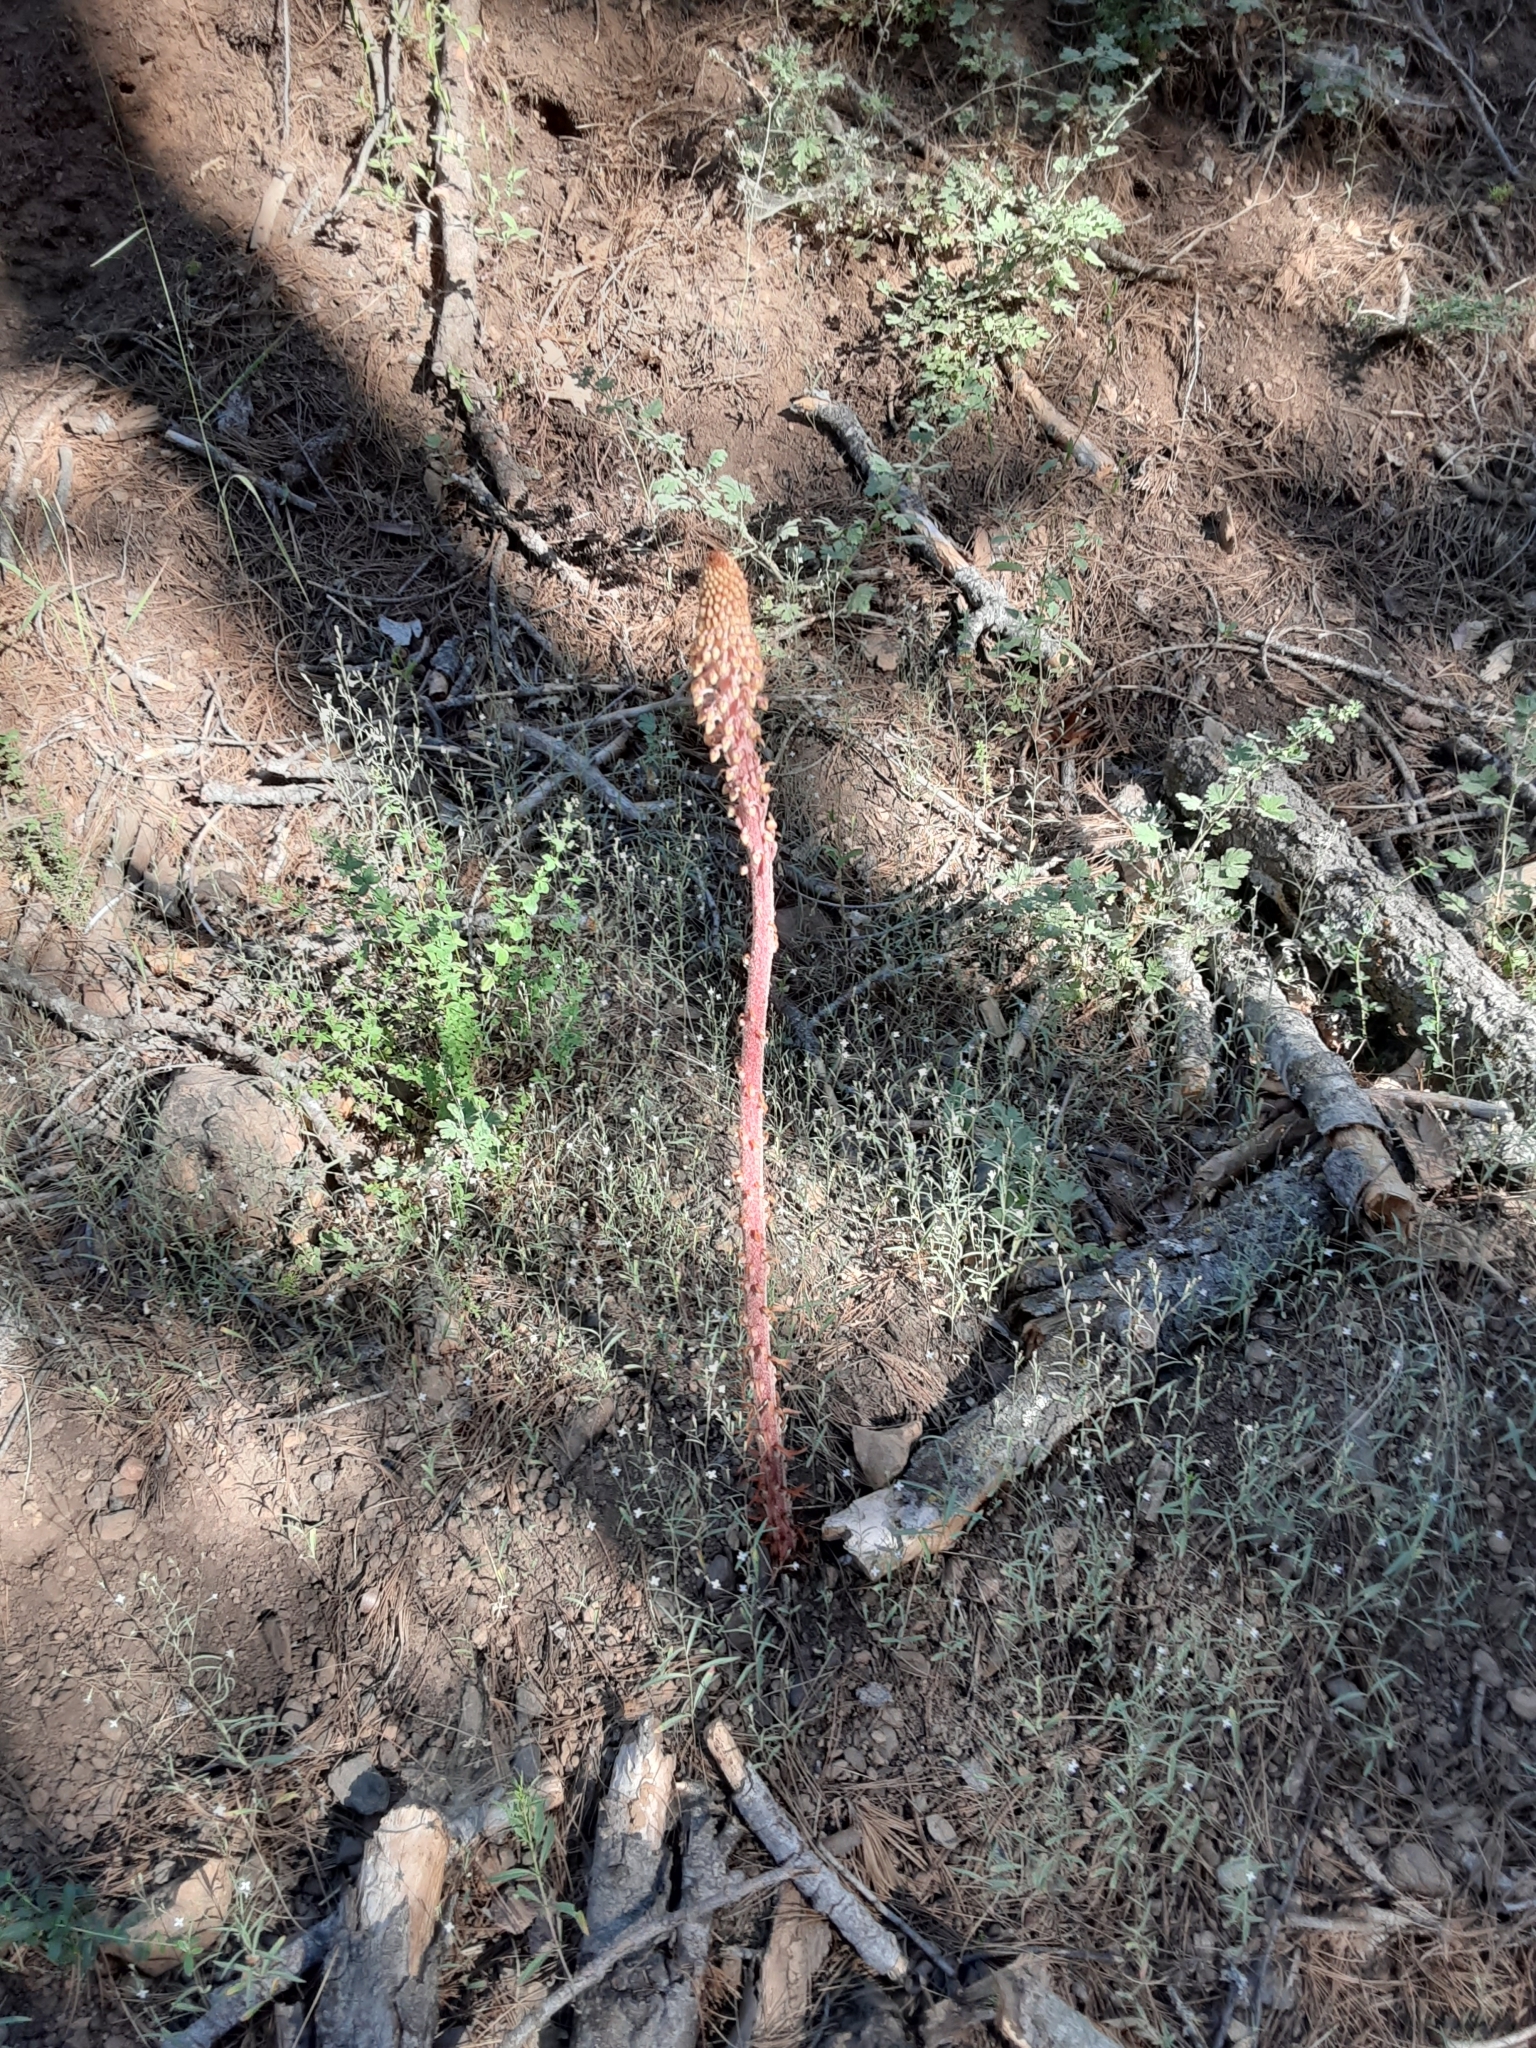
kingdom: Plantae
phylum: Tracheophyta
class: Magnoliopsida
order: Ericales
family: Ericaceae
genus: Pterospora
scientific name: Pterospora andromedea
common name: Giant bird's-nest
